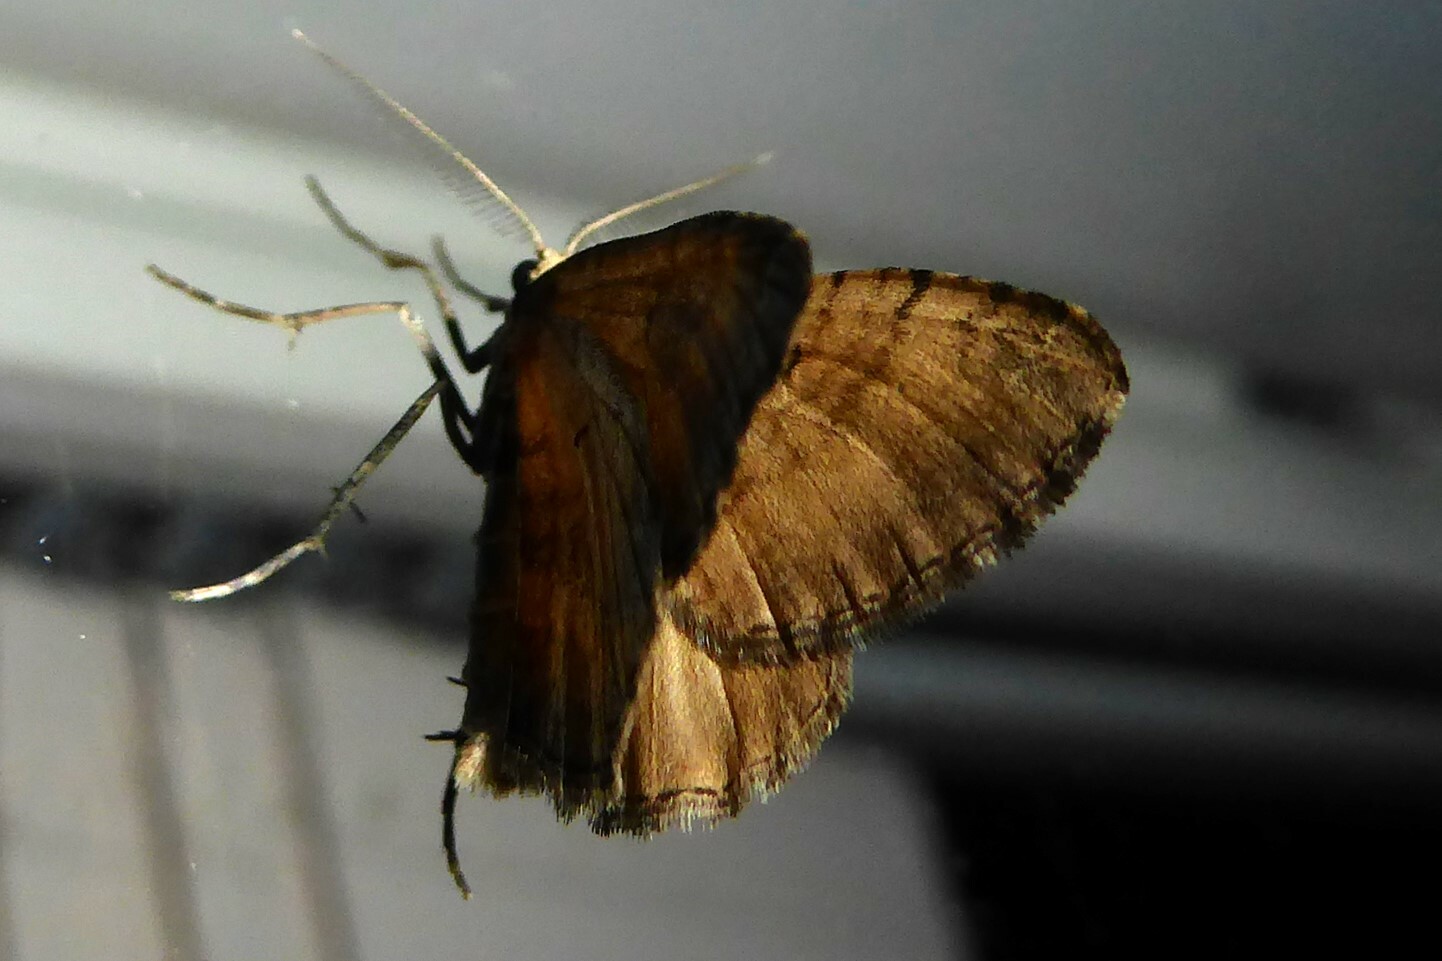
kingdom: Animalia
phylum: Arthropoda
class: Insecta
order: Lepidoptera
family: Geometridae
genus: Asaphodes
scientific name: Asaphodes aegrota
